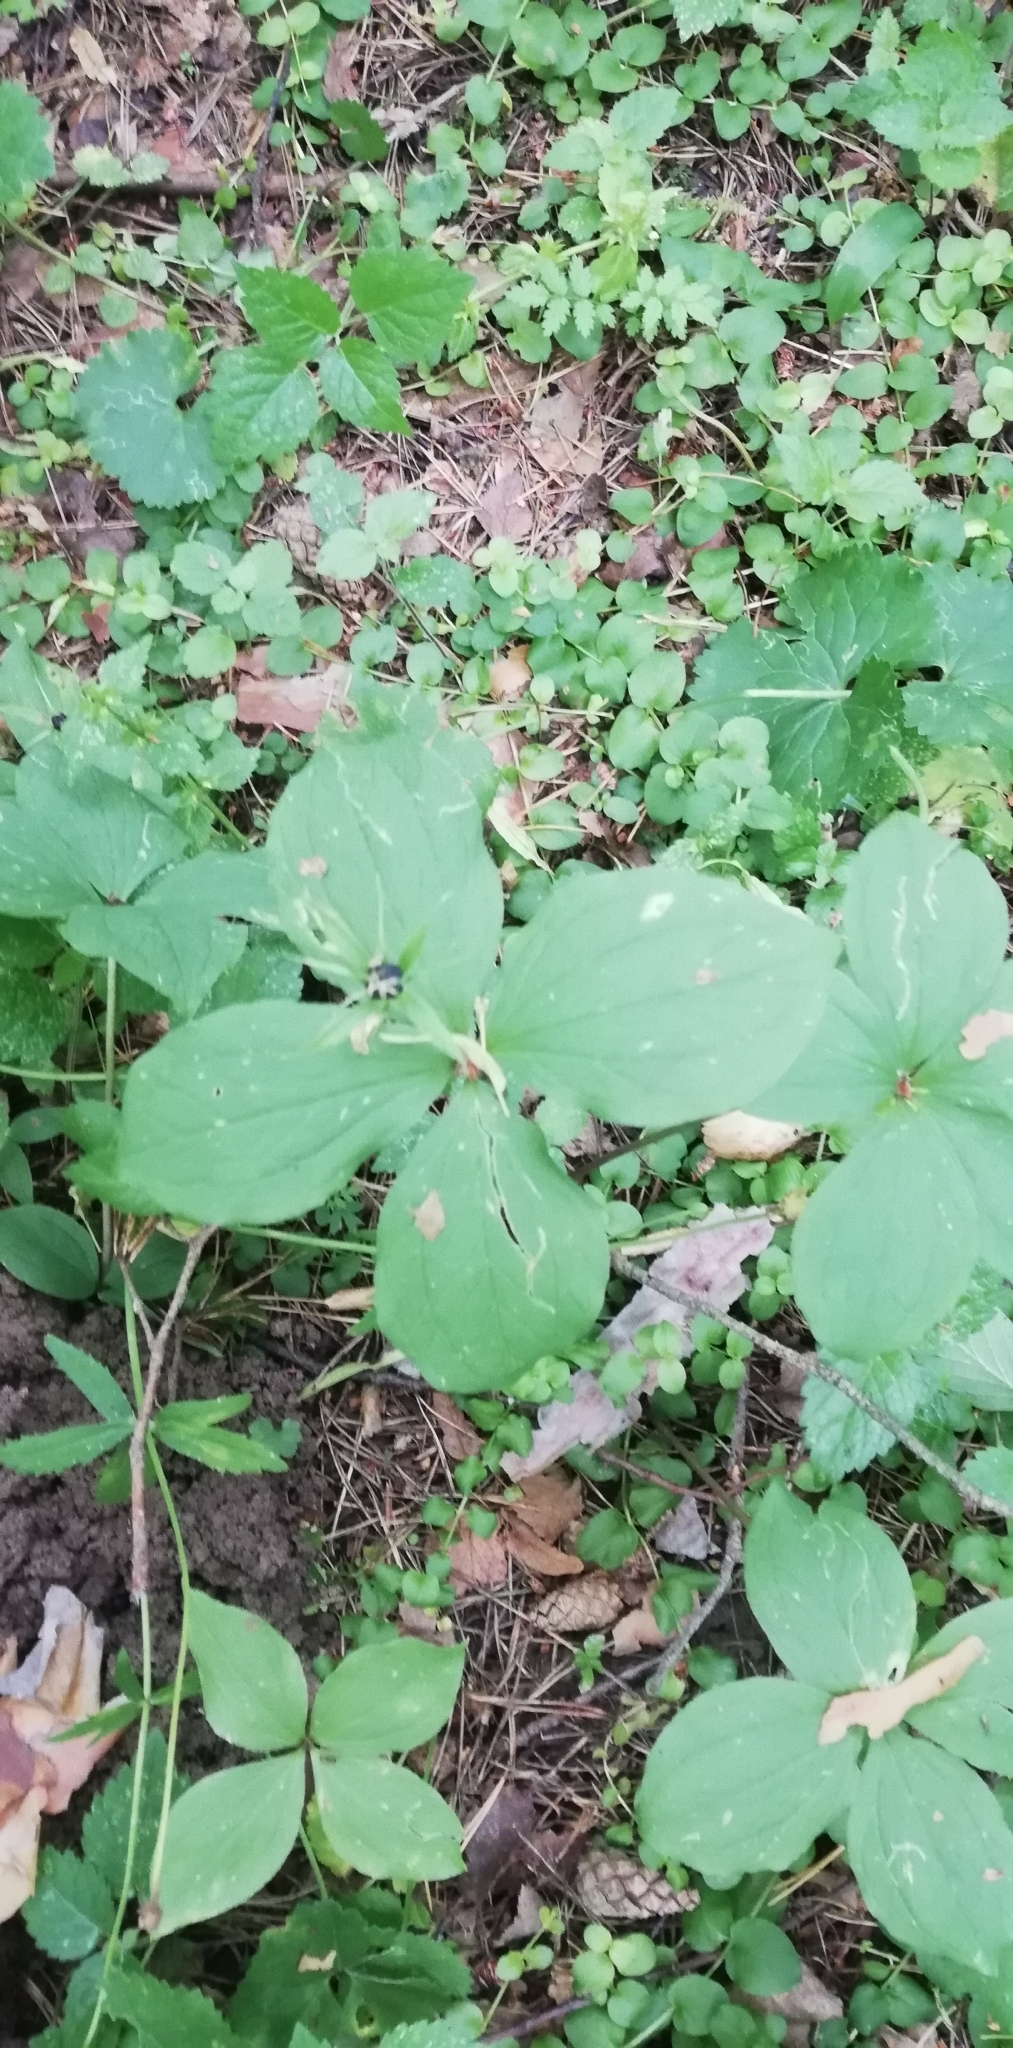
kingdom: Plantae
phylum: Tracheophyta
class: Liliopsida
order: Liliales
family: Melanthiaceae
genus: Paris
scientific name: Paris quadrifolia
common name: Herb-paris
